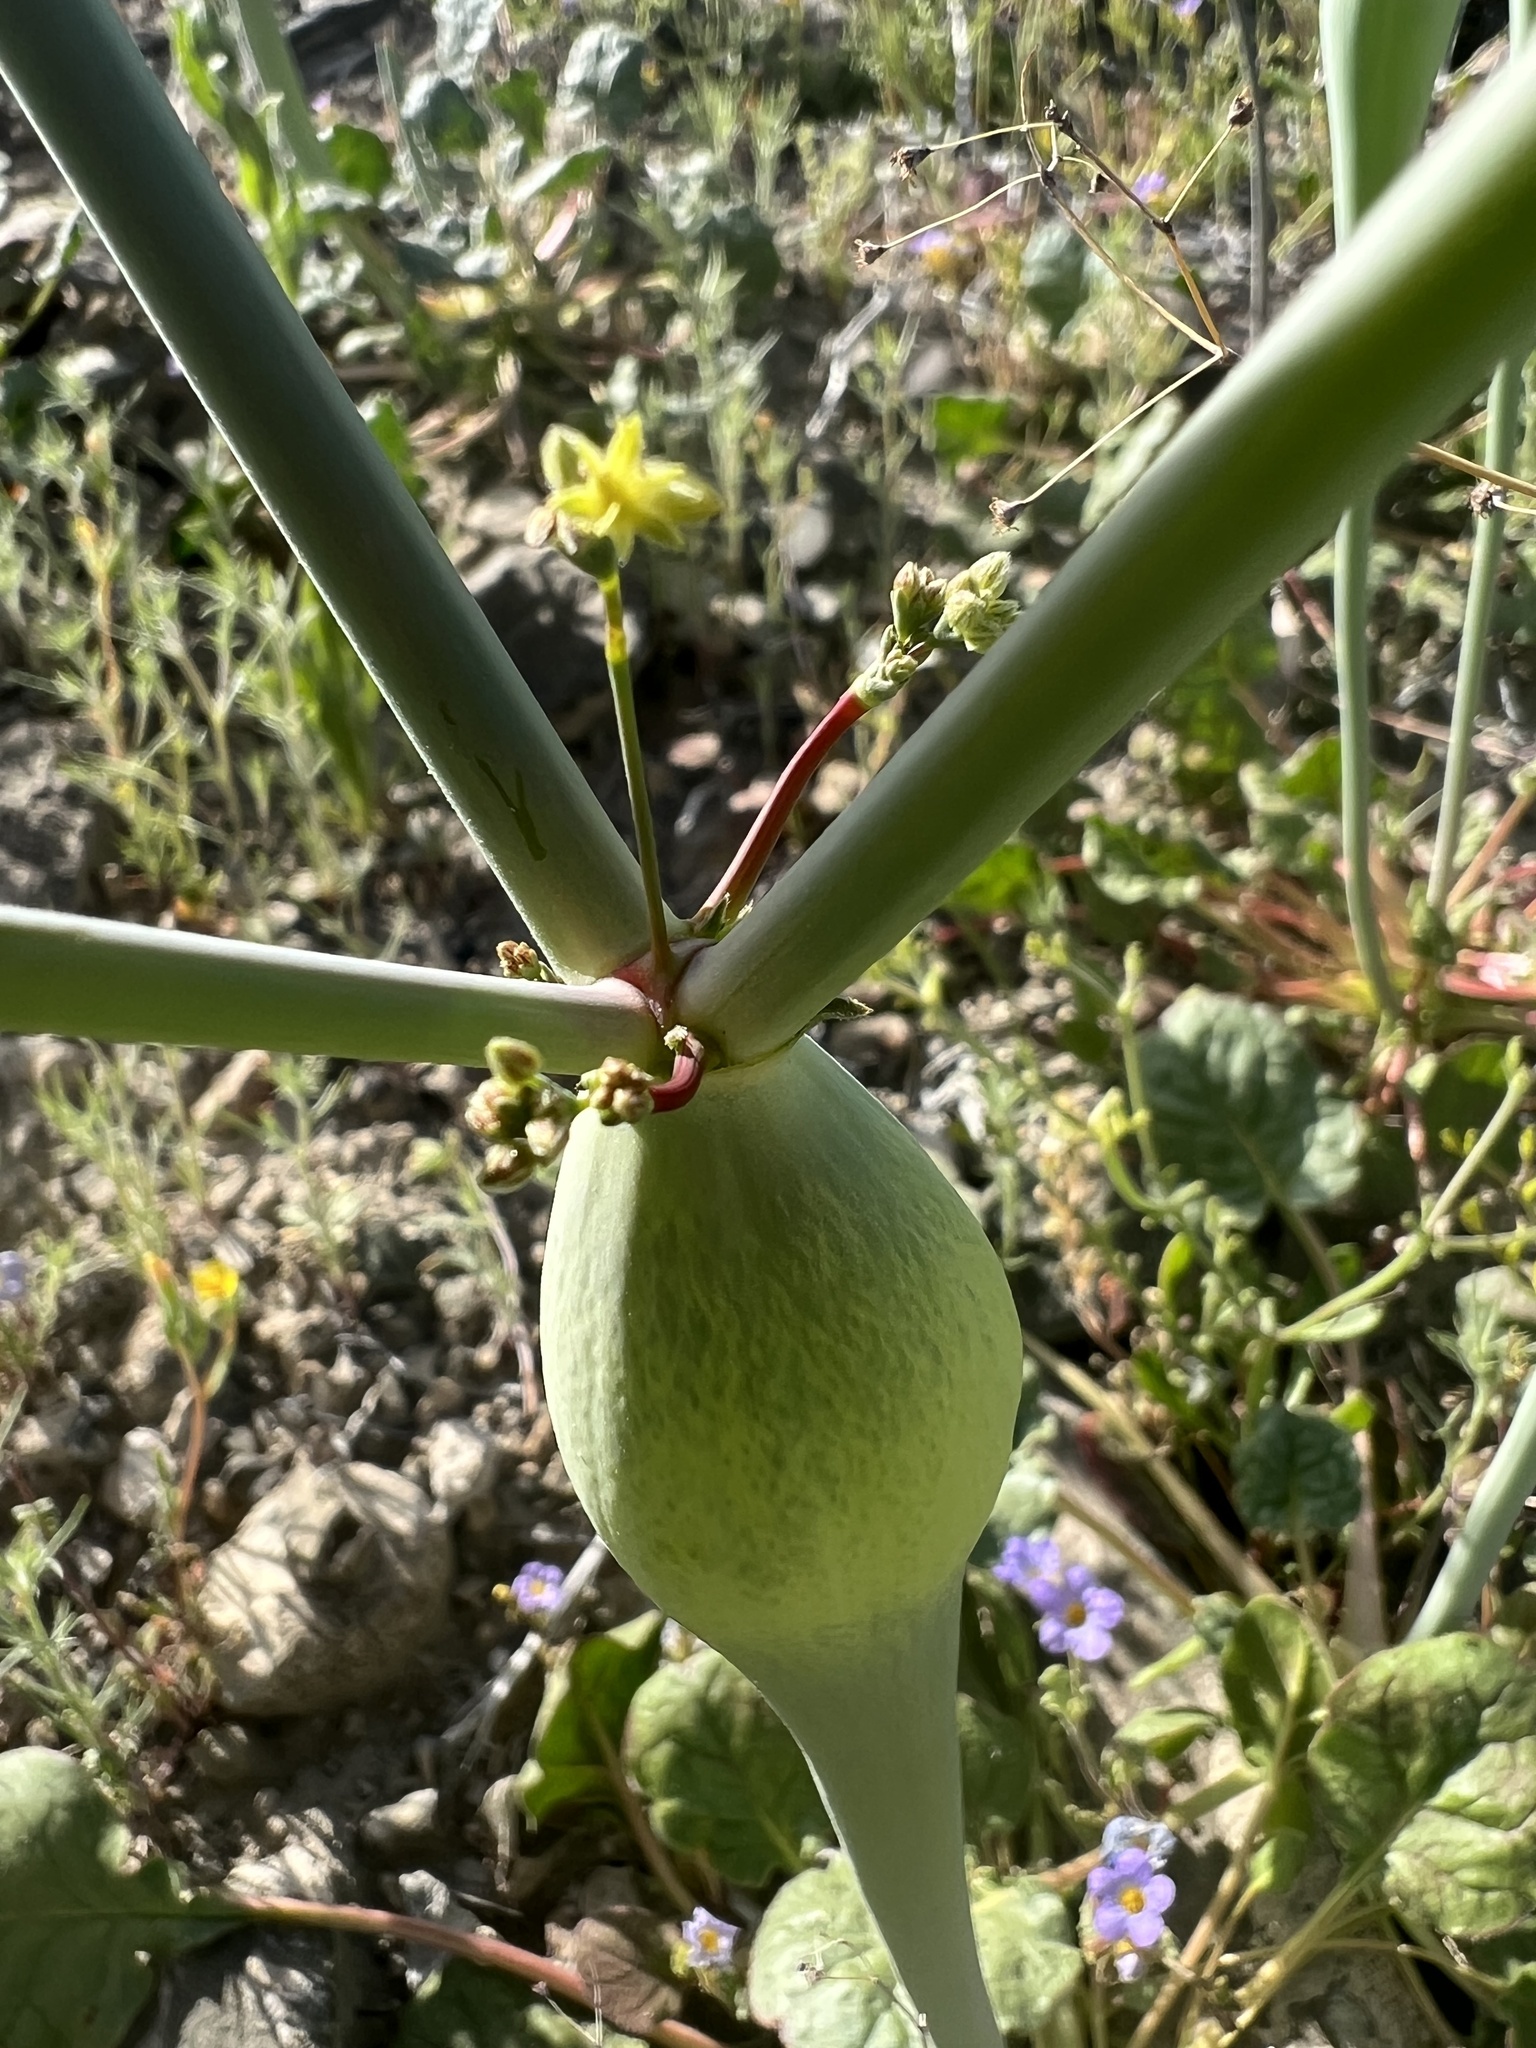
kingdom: Plantae
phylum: Tracheophyta
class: Magnoliopsida
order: Caryophyllales
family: Polygonaceae
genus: Eriogonum
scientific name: Eriogonum inflatum
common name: Desert trumpet
